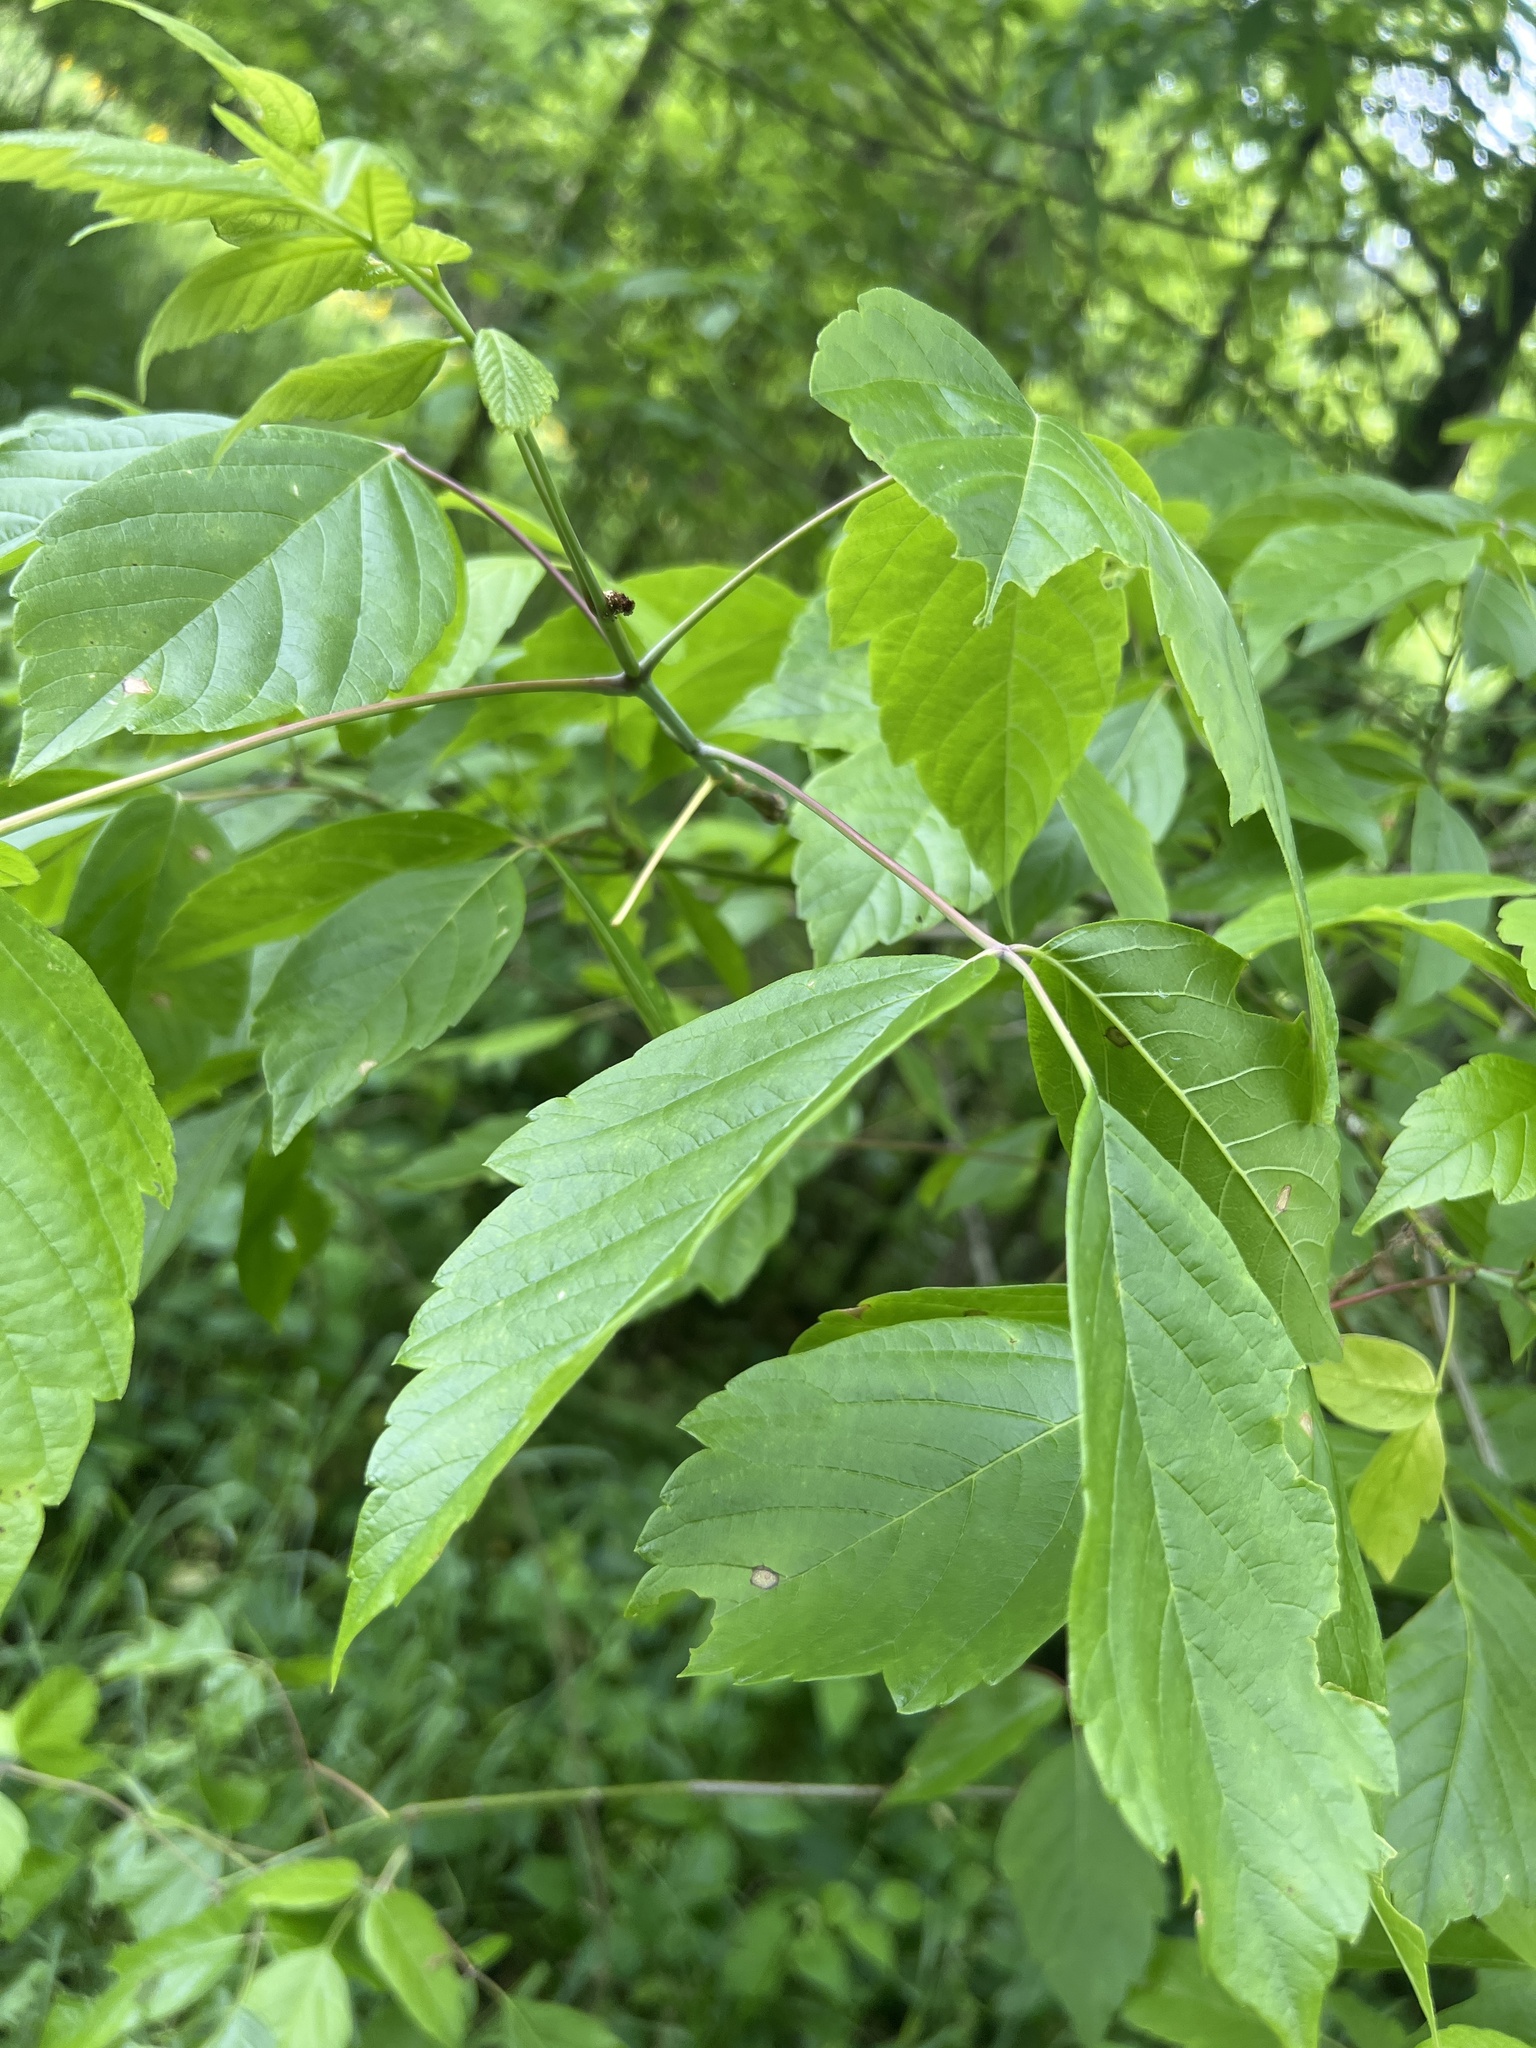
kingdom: Plantae
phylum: Tracheophyta
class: Magnoliopsida
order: Sapindales
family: Sapindaceae
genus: Acer
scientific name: Acer negundo
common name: Ashleaf maple
